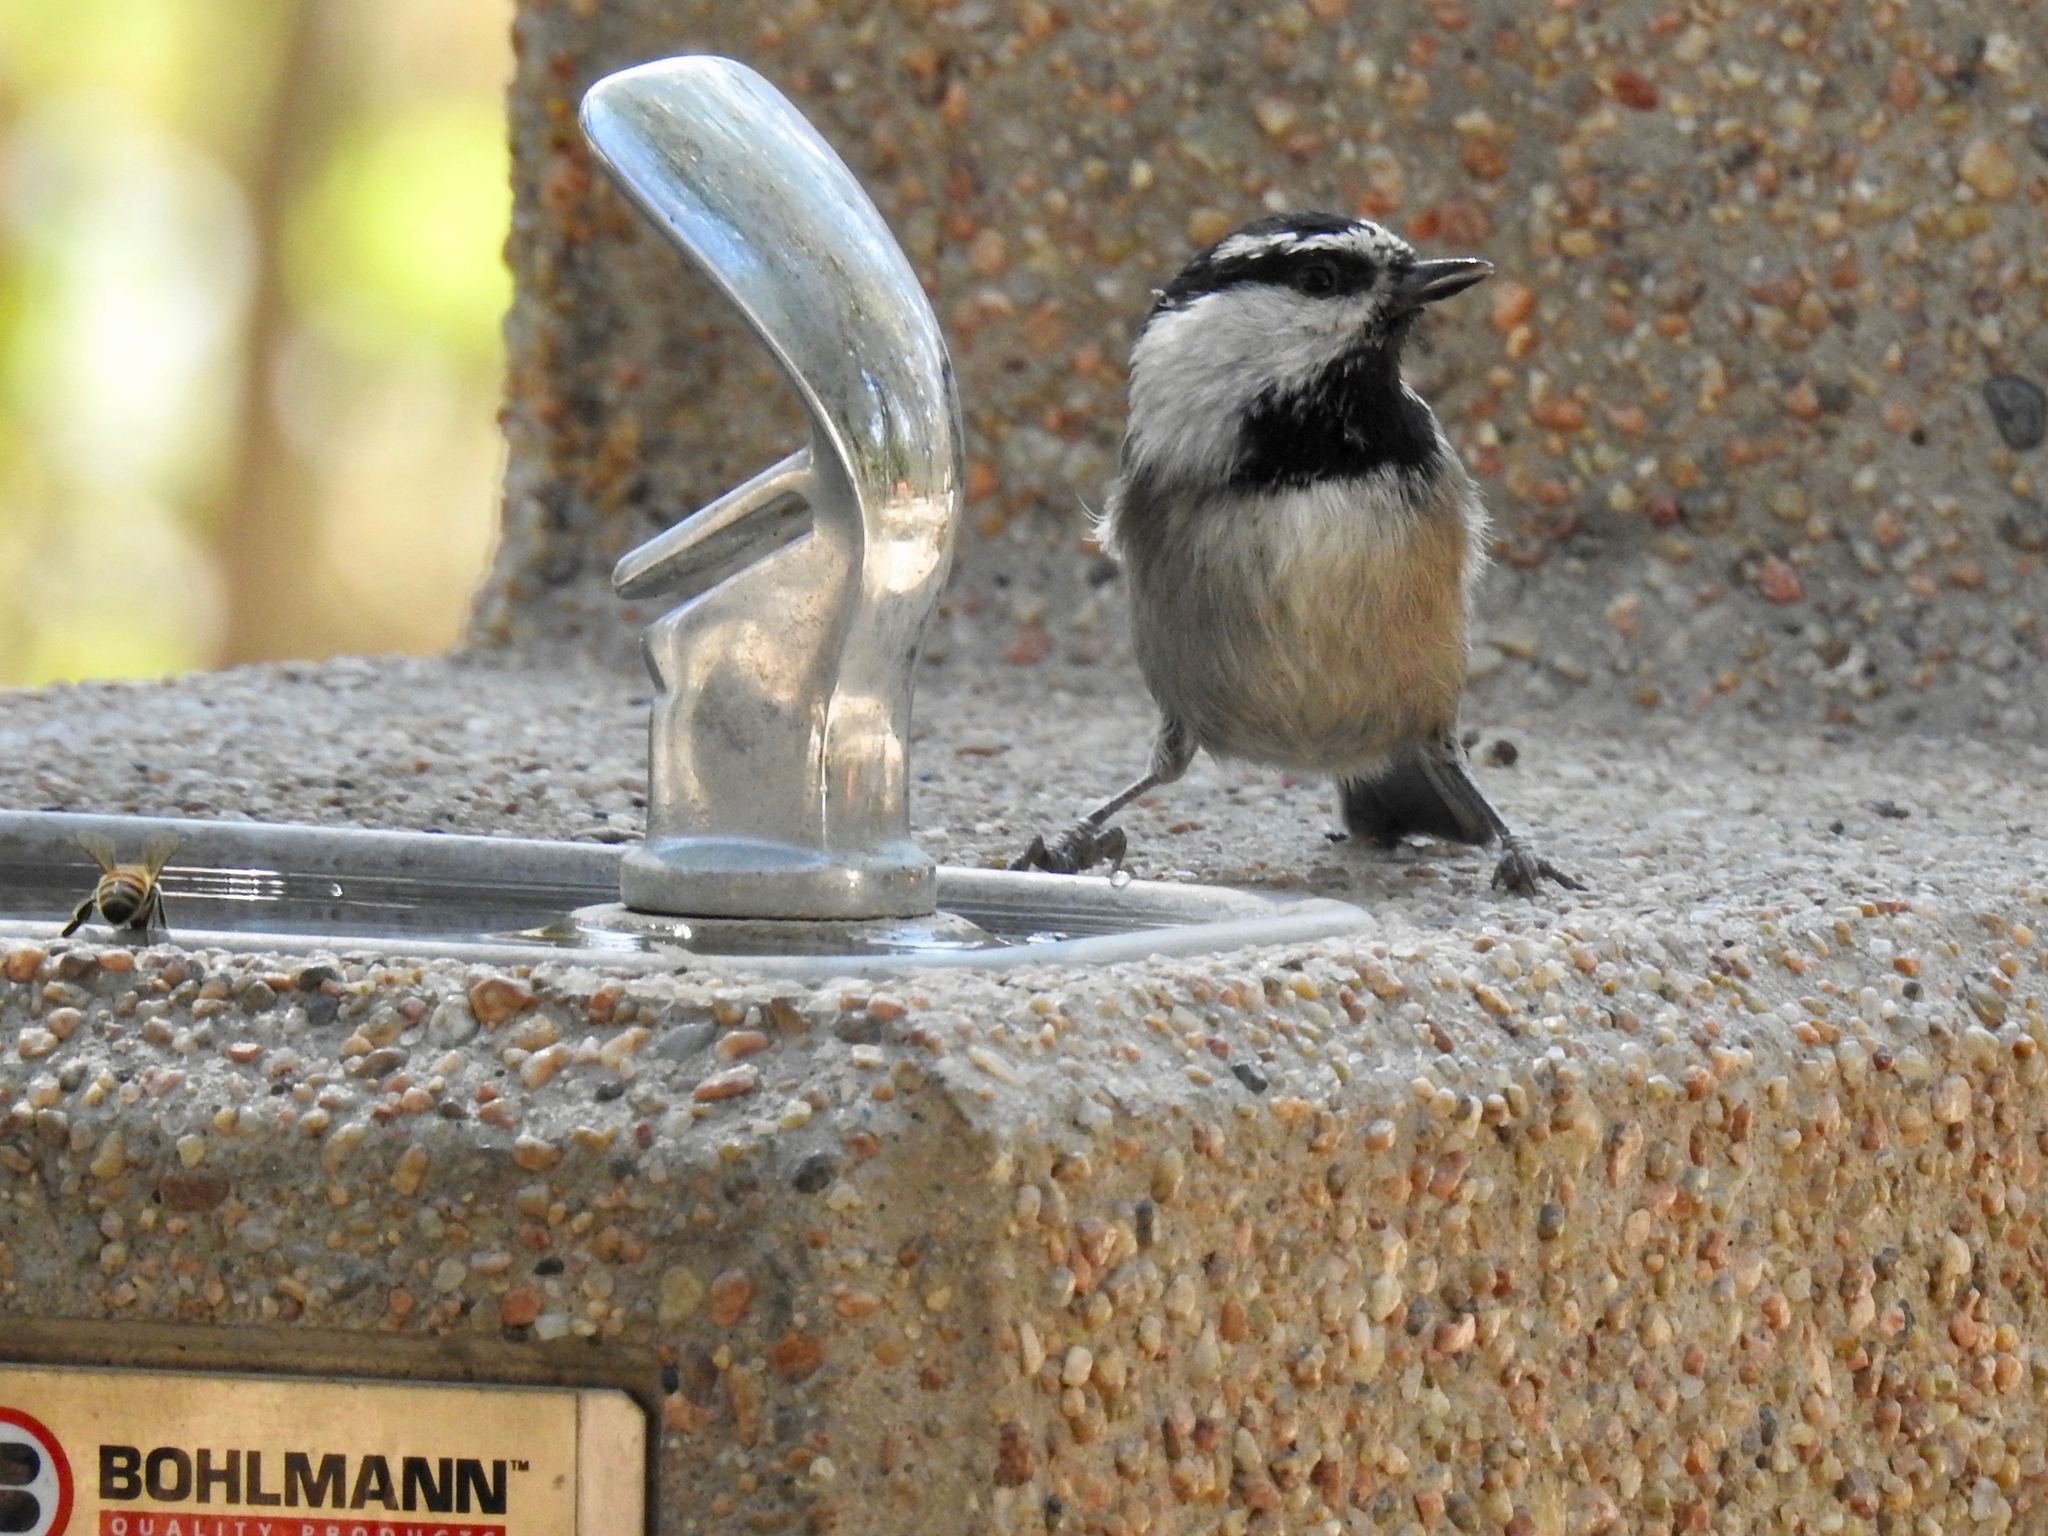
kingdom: Animalia
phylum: Chordata
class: Aves
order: Passeriformes
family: Paridae
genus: Poecile
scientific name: Poecile gambeli
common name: Mountain chickadee
